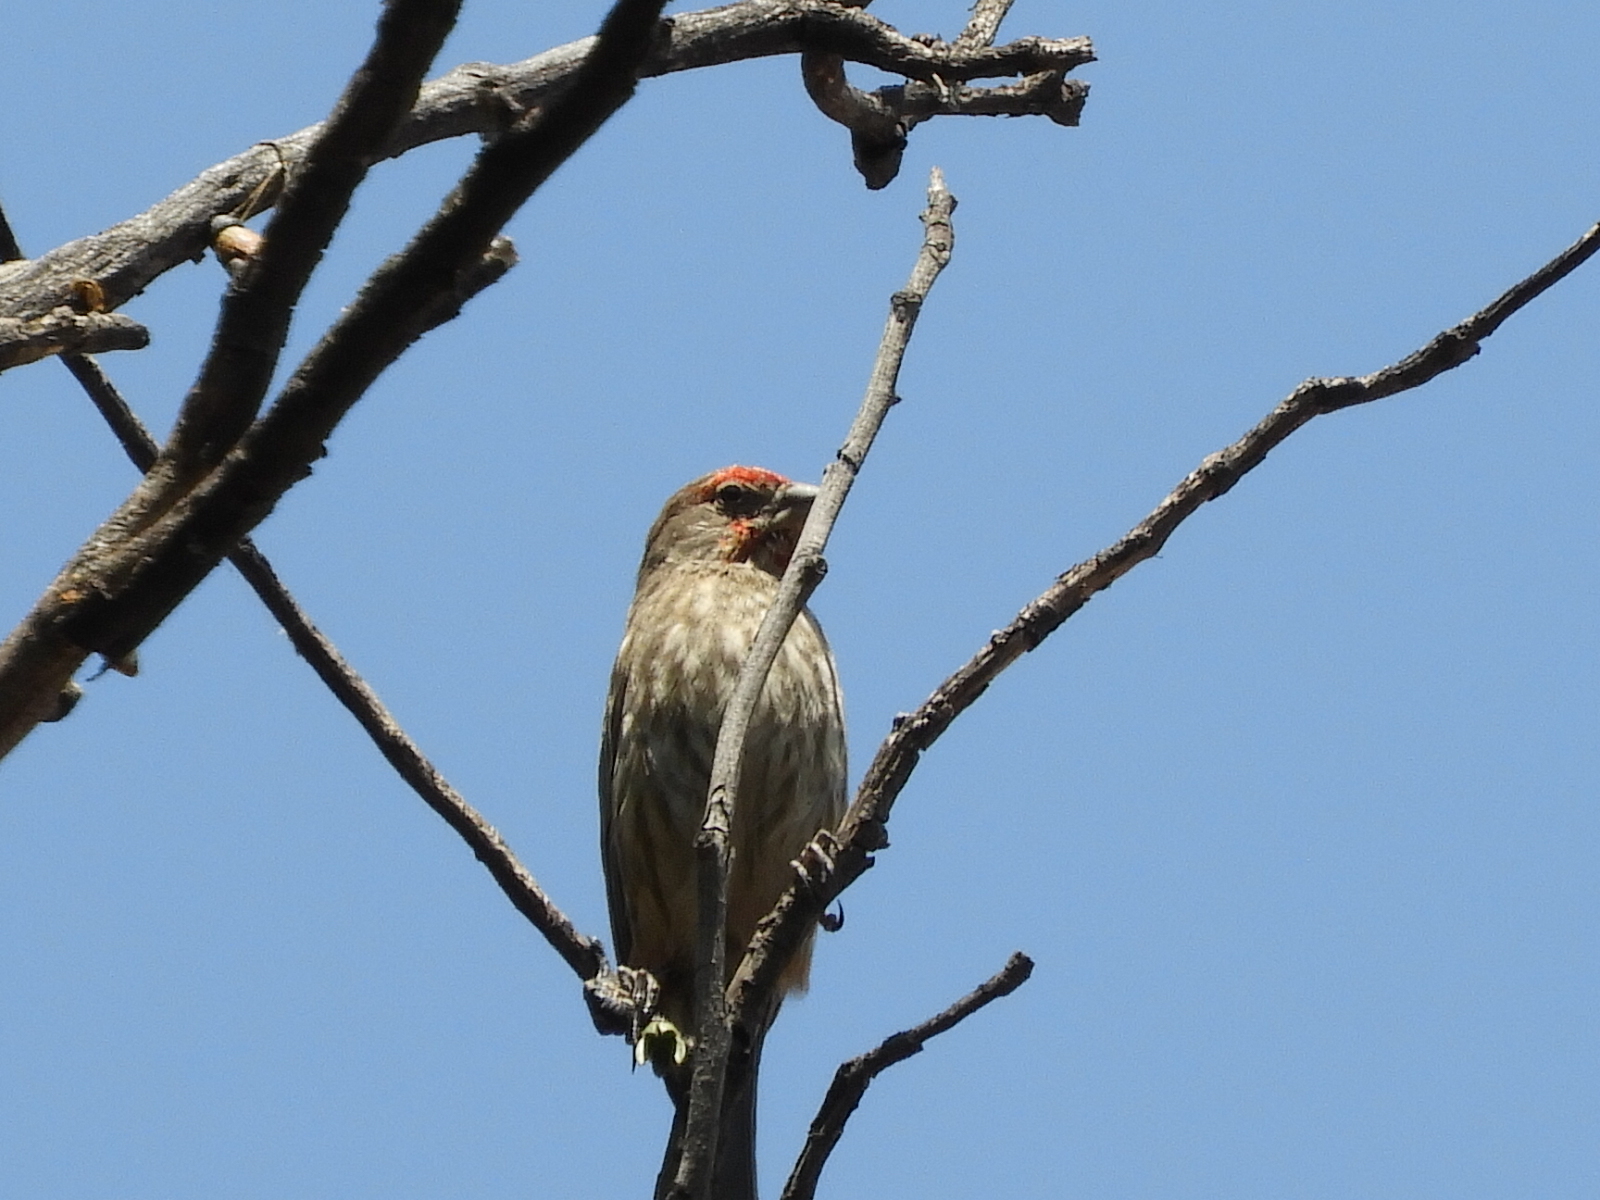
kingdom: Animalia
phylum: Chordata
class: Aves
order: Passeriformes
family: Fringillidae
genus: Haemorhous
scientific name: Haemorhous mexicanus
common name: House finch
